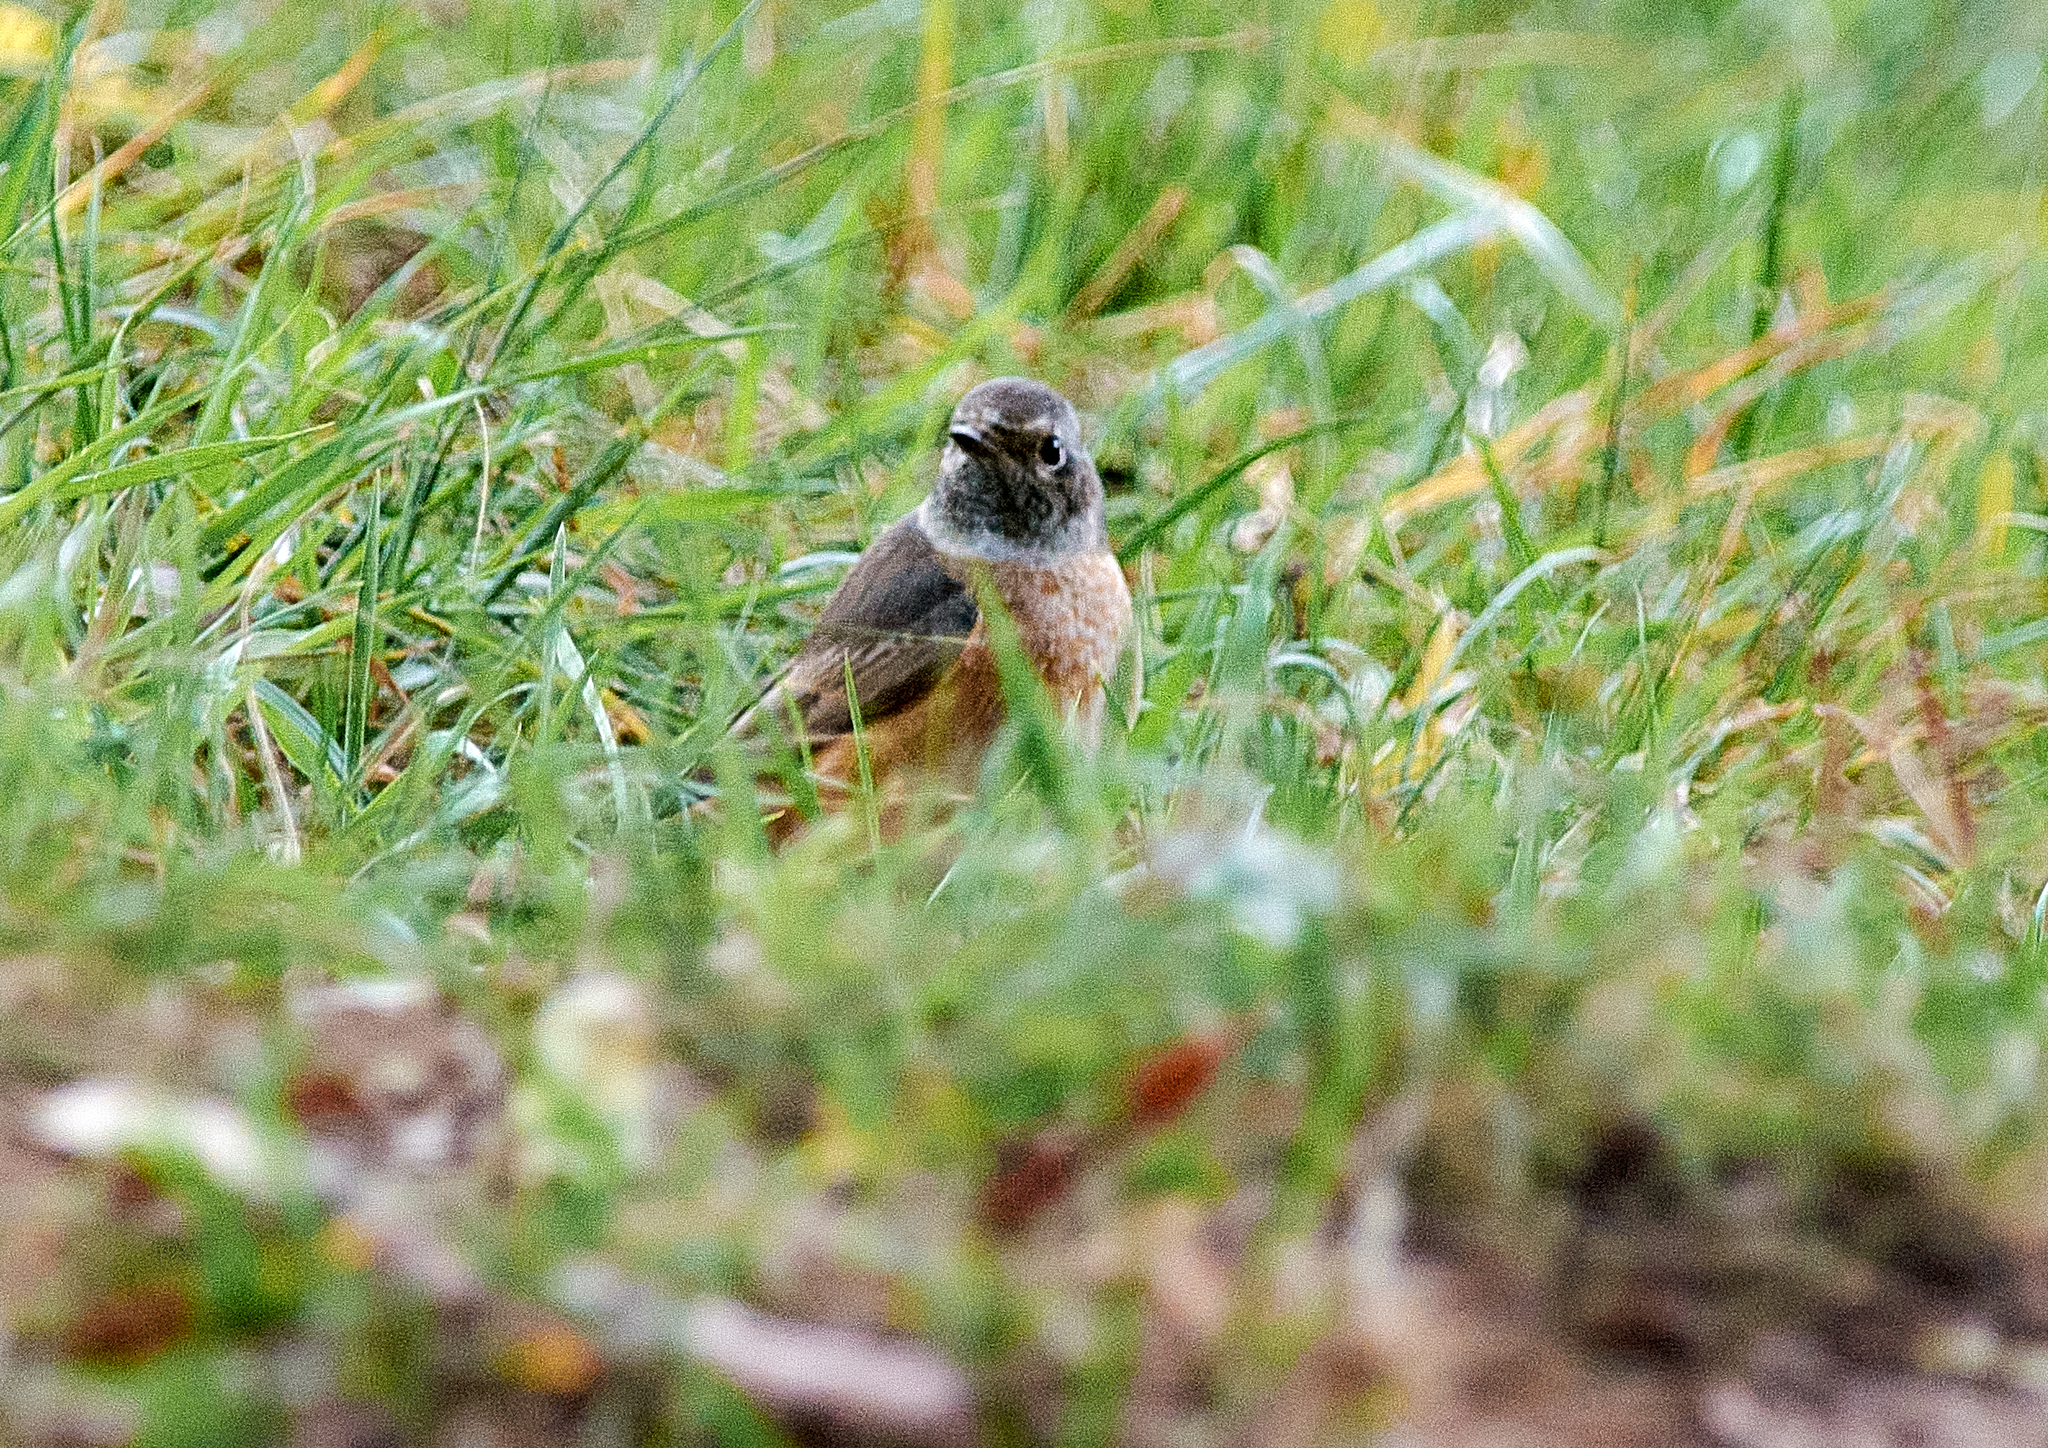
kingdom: Animalia
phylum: Chordata
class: Aves
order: Passeriformes
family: Muscicapidae
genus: Phoenicurus
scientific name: Phoenicurus phoenicurus
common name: Common redstart
